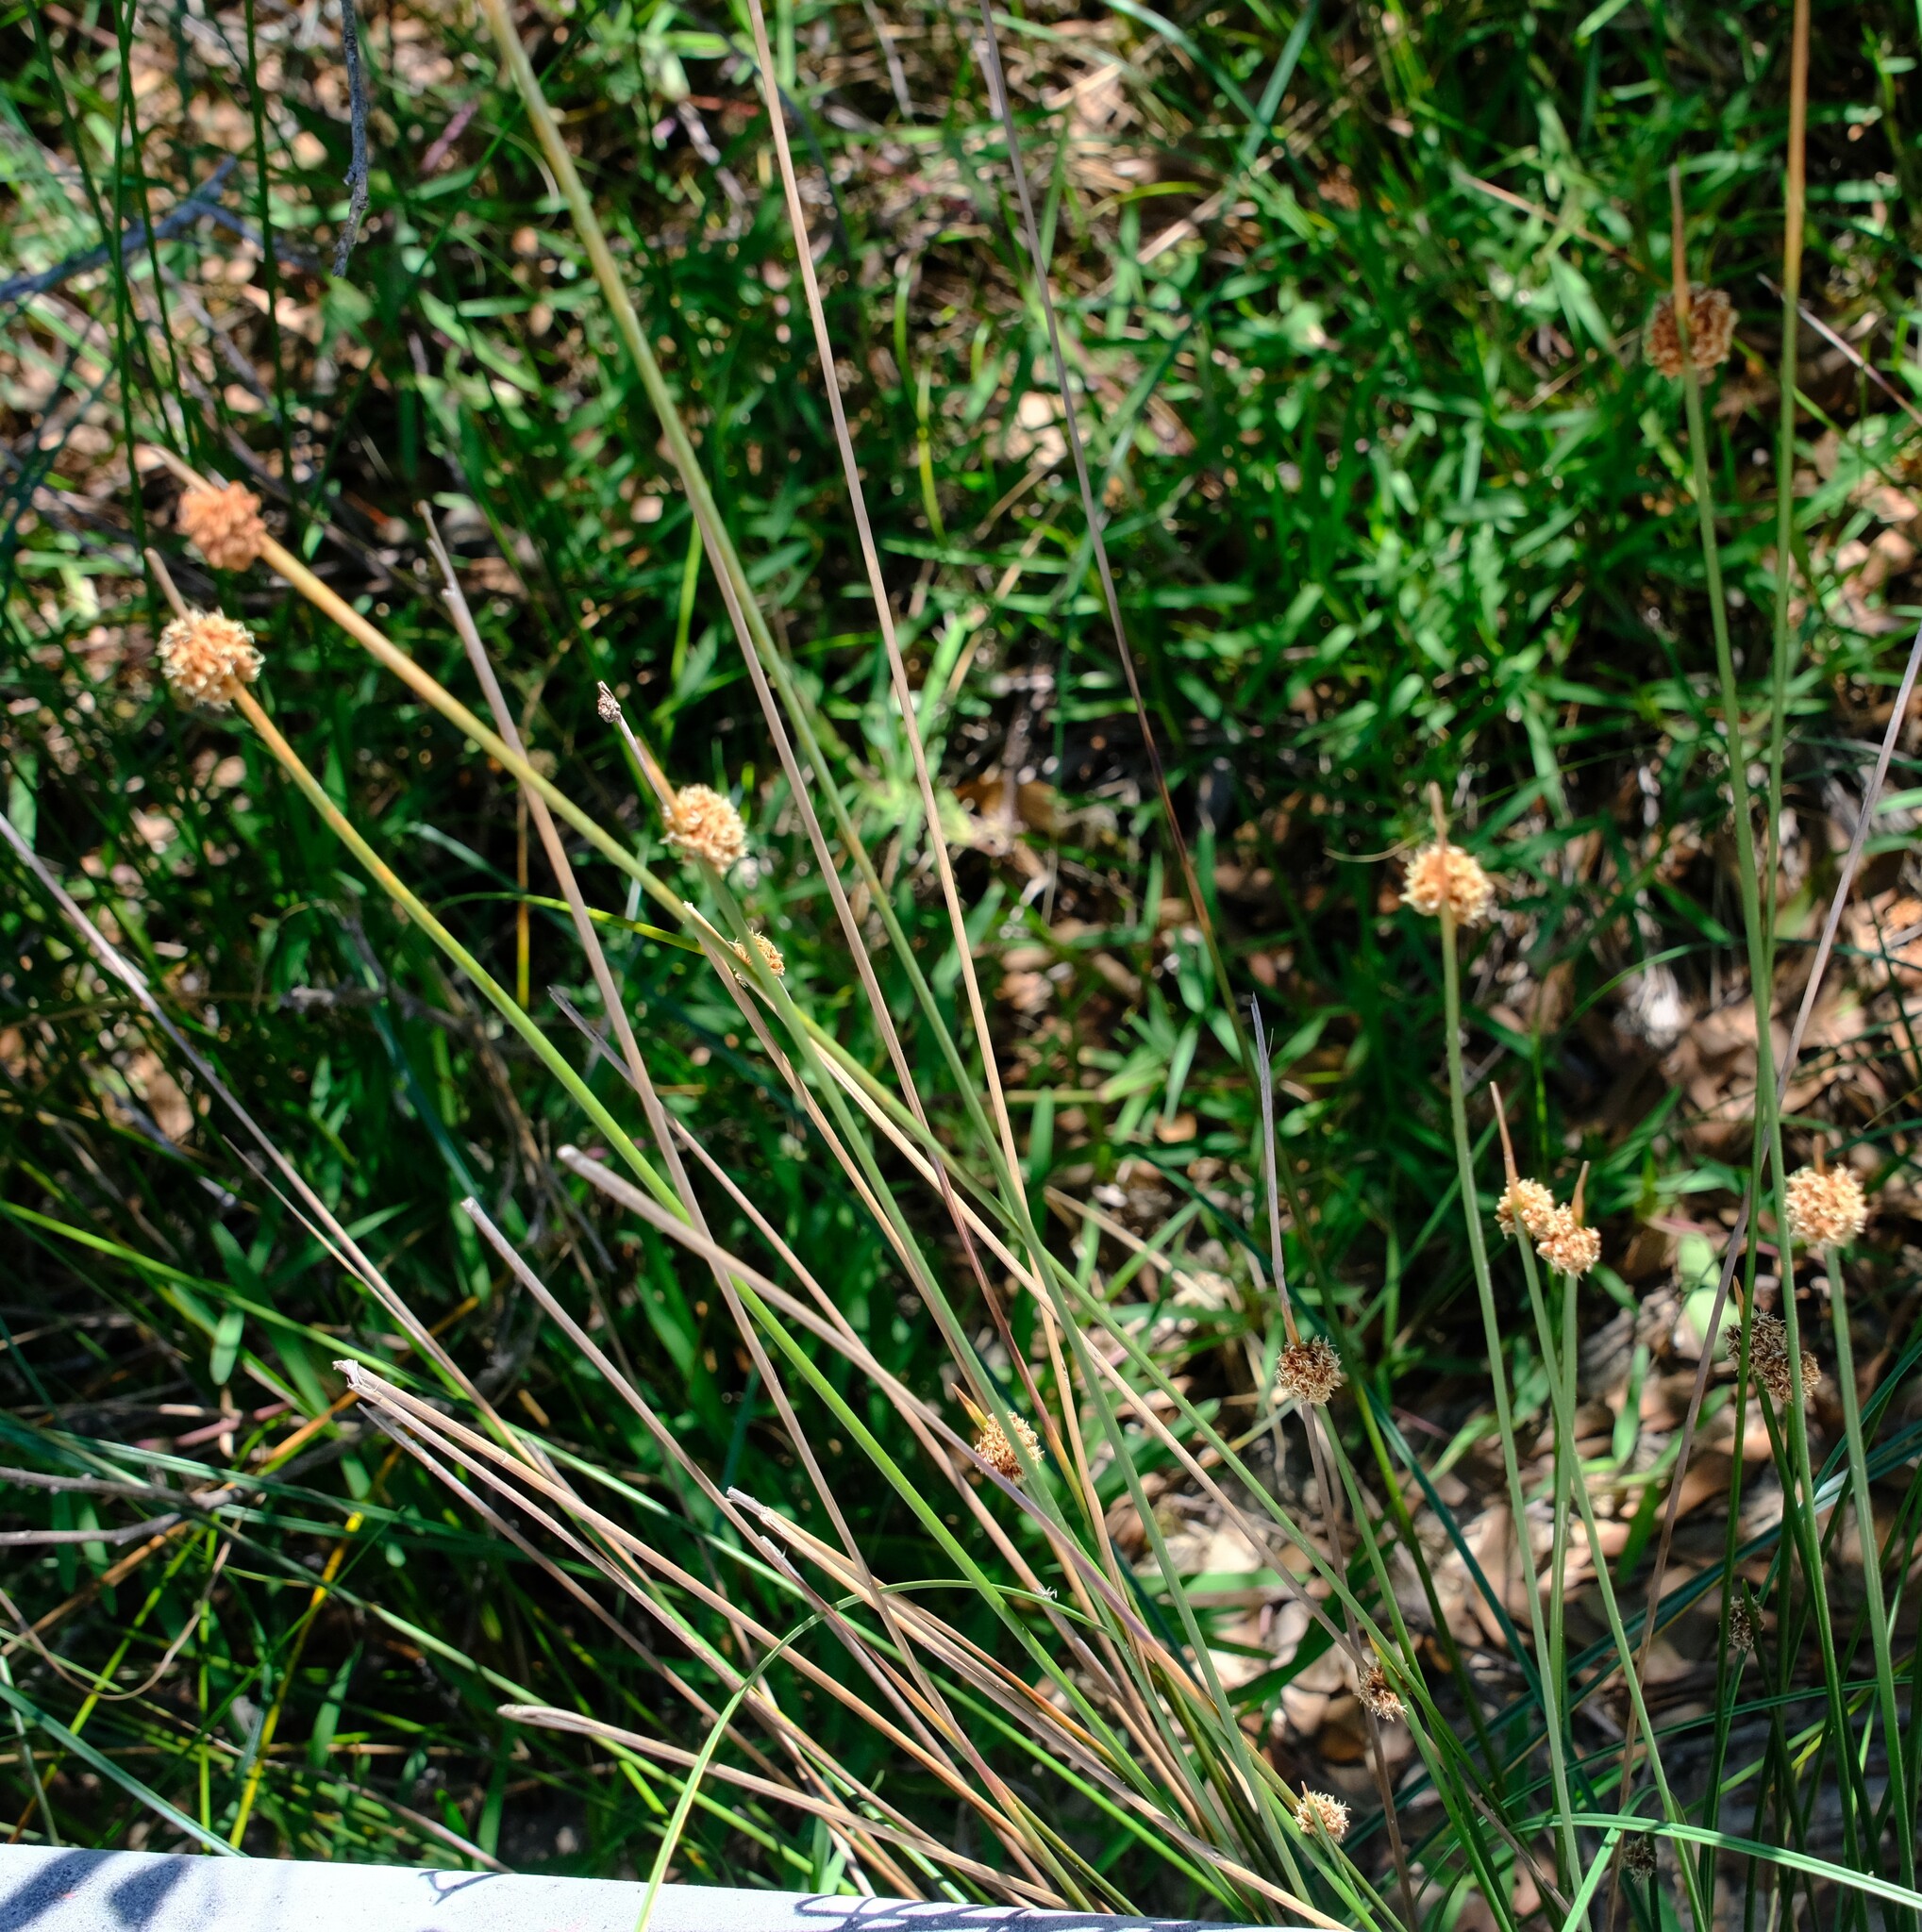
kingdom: Plantae
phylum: Tracheophyta
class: Liliopsida
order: Poales
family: Cyperaceae
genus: Ficinia
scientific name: Ficinia nodosa
